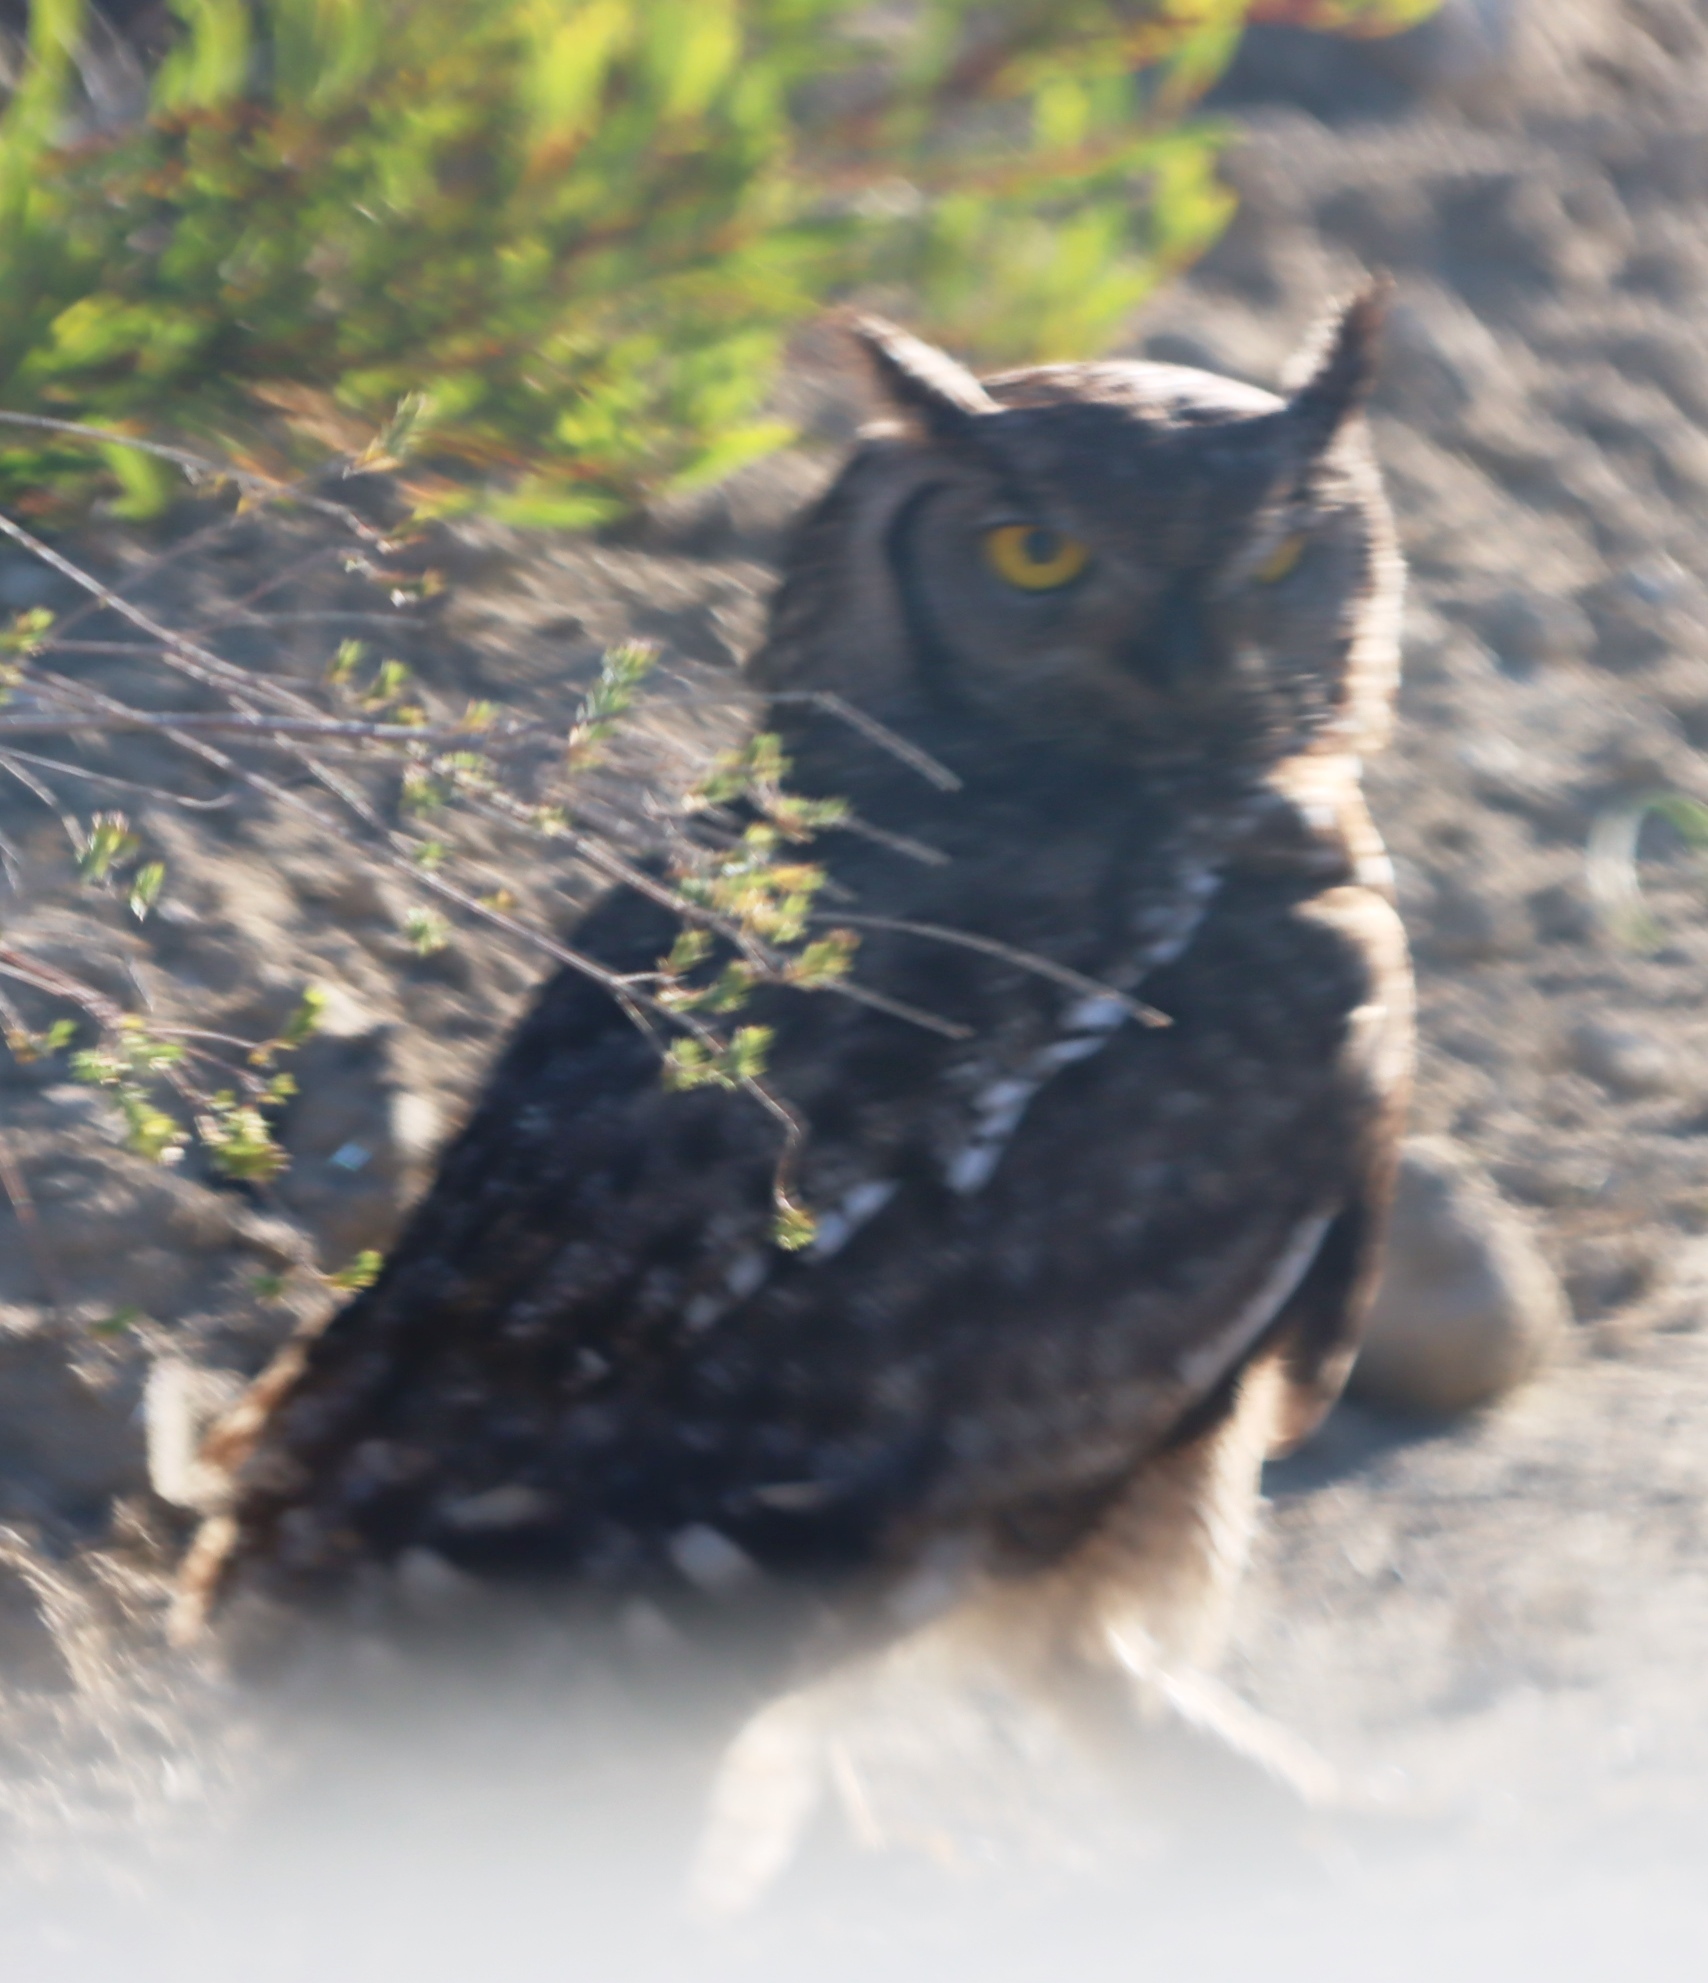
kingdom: Animalia
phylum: Chordata
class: Aves
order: Strigiformes
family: Strigidae
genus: Bubo
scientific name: Bubo africanus
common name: Spotted eagle-owl
